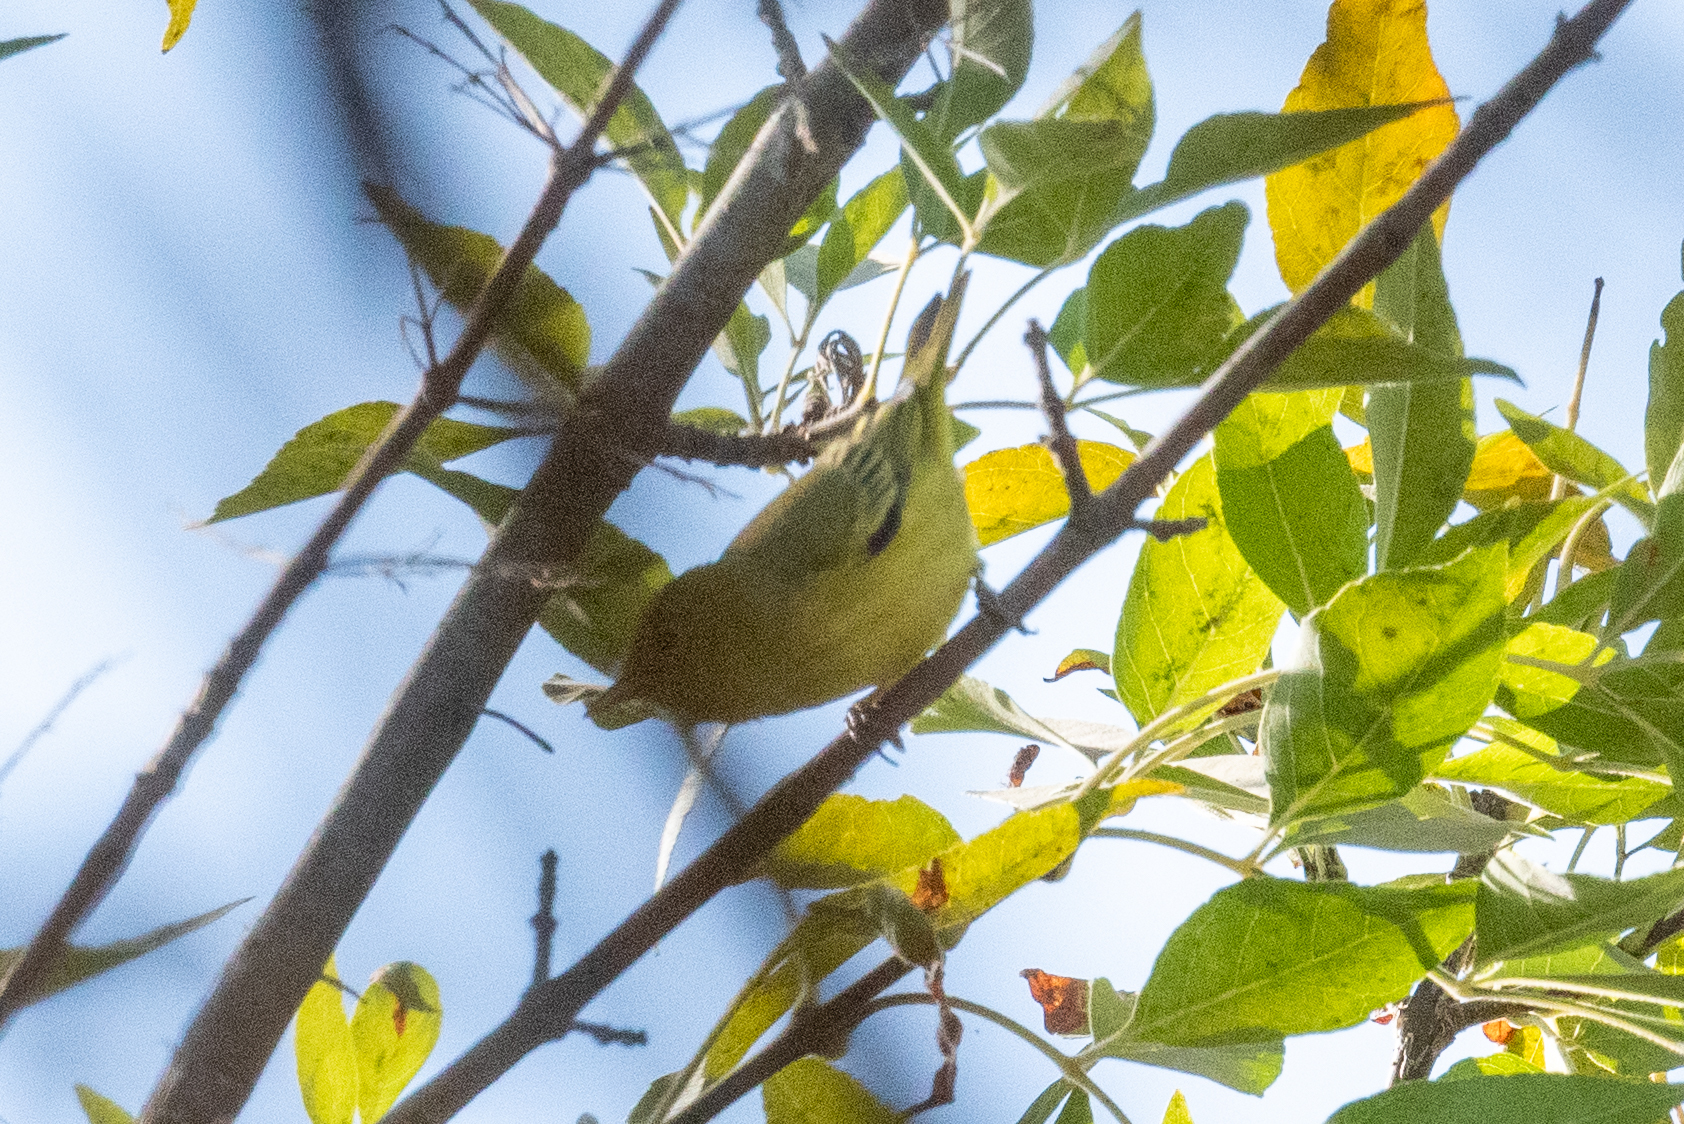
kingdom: Animalia
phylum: Chordata
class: Aves
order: Passeriformes
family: Parulidae
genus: Setophaga
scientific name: Setophaga petechia
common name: Yellow warbler
